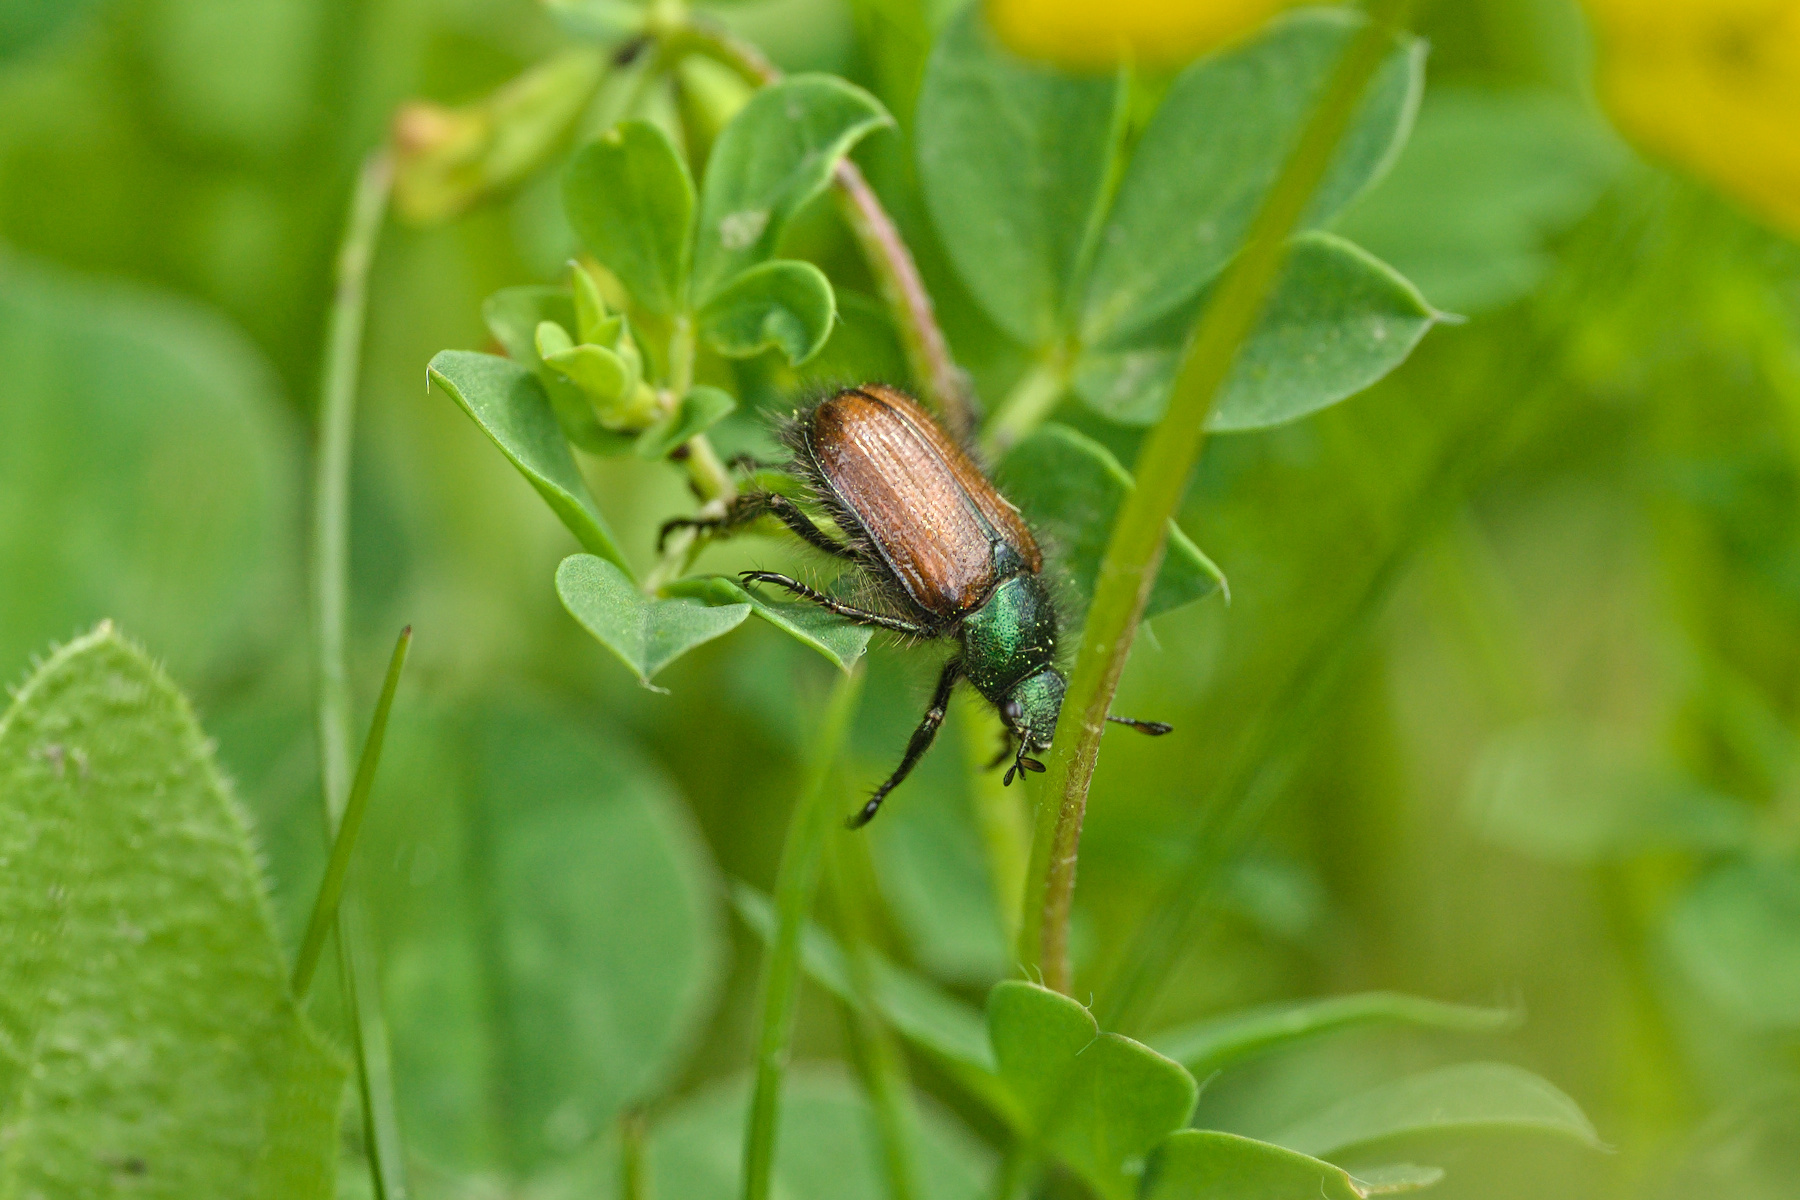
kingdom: Animalia
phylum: Arthropoda
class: Insecta
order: Coleoptera
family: Scarabaeidae
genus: Phyllopertha
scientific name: Phyllopertha horticola
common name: Garden chafer
